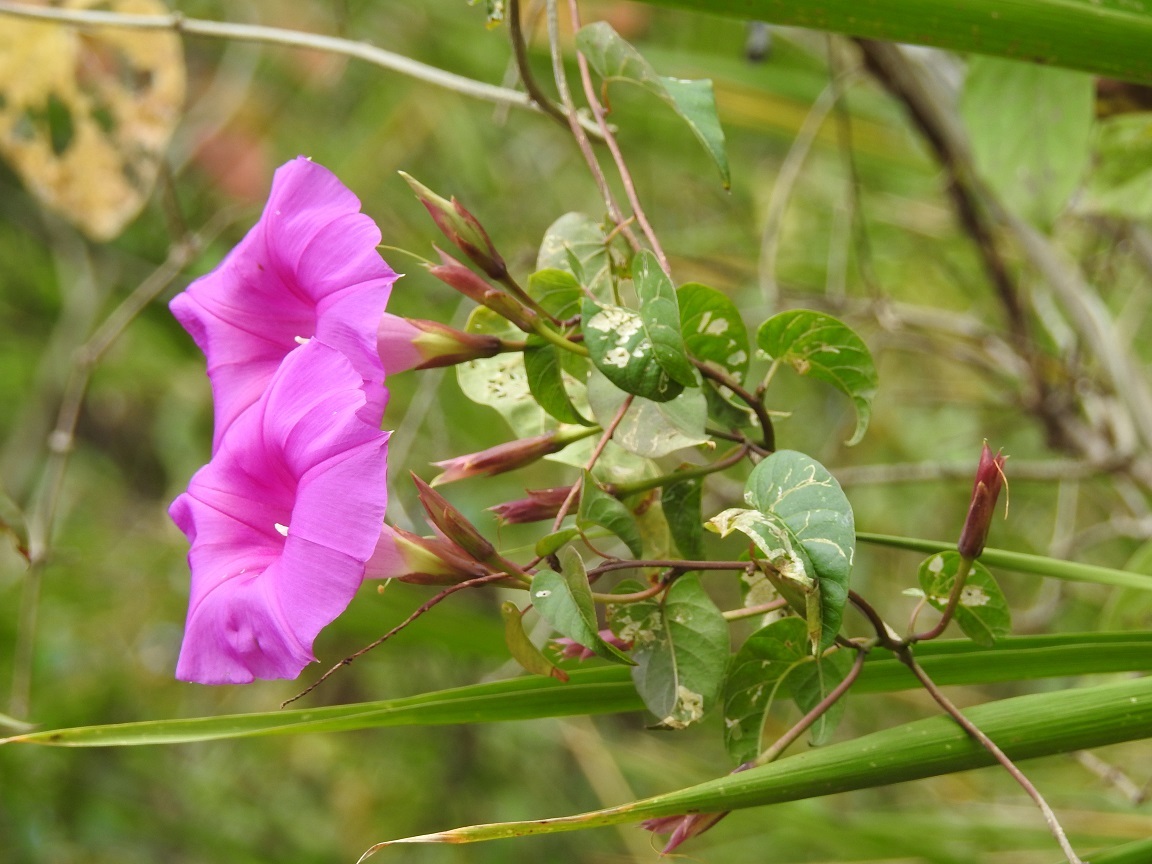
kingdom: Plantae
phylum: Tracheophyta
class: Magnoliopsida
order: Solanales
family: Convolvulaceae
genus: Ipomoea
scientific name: Ipomoea bernoulliana
